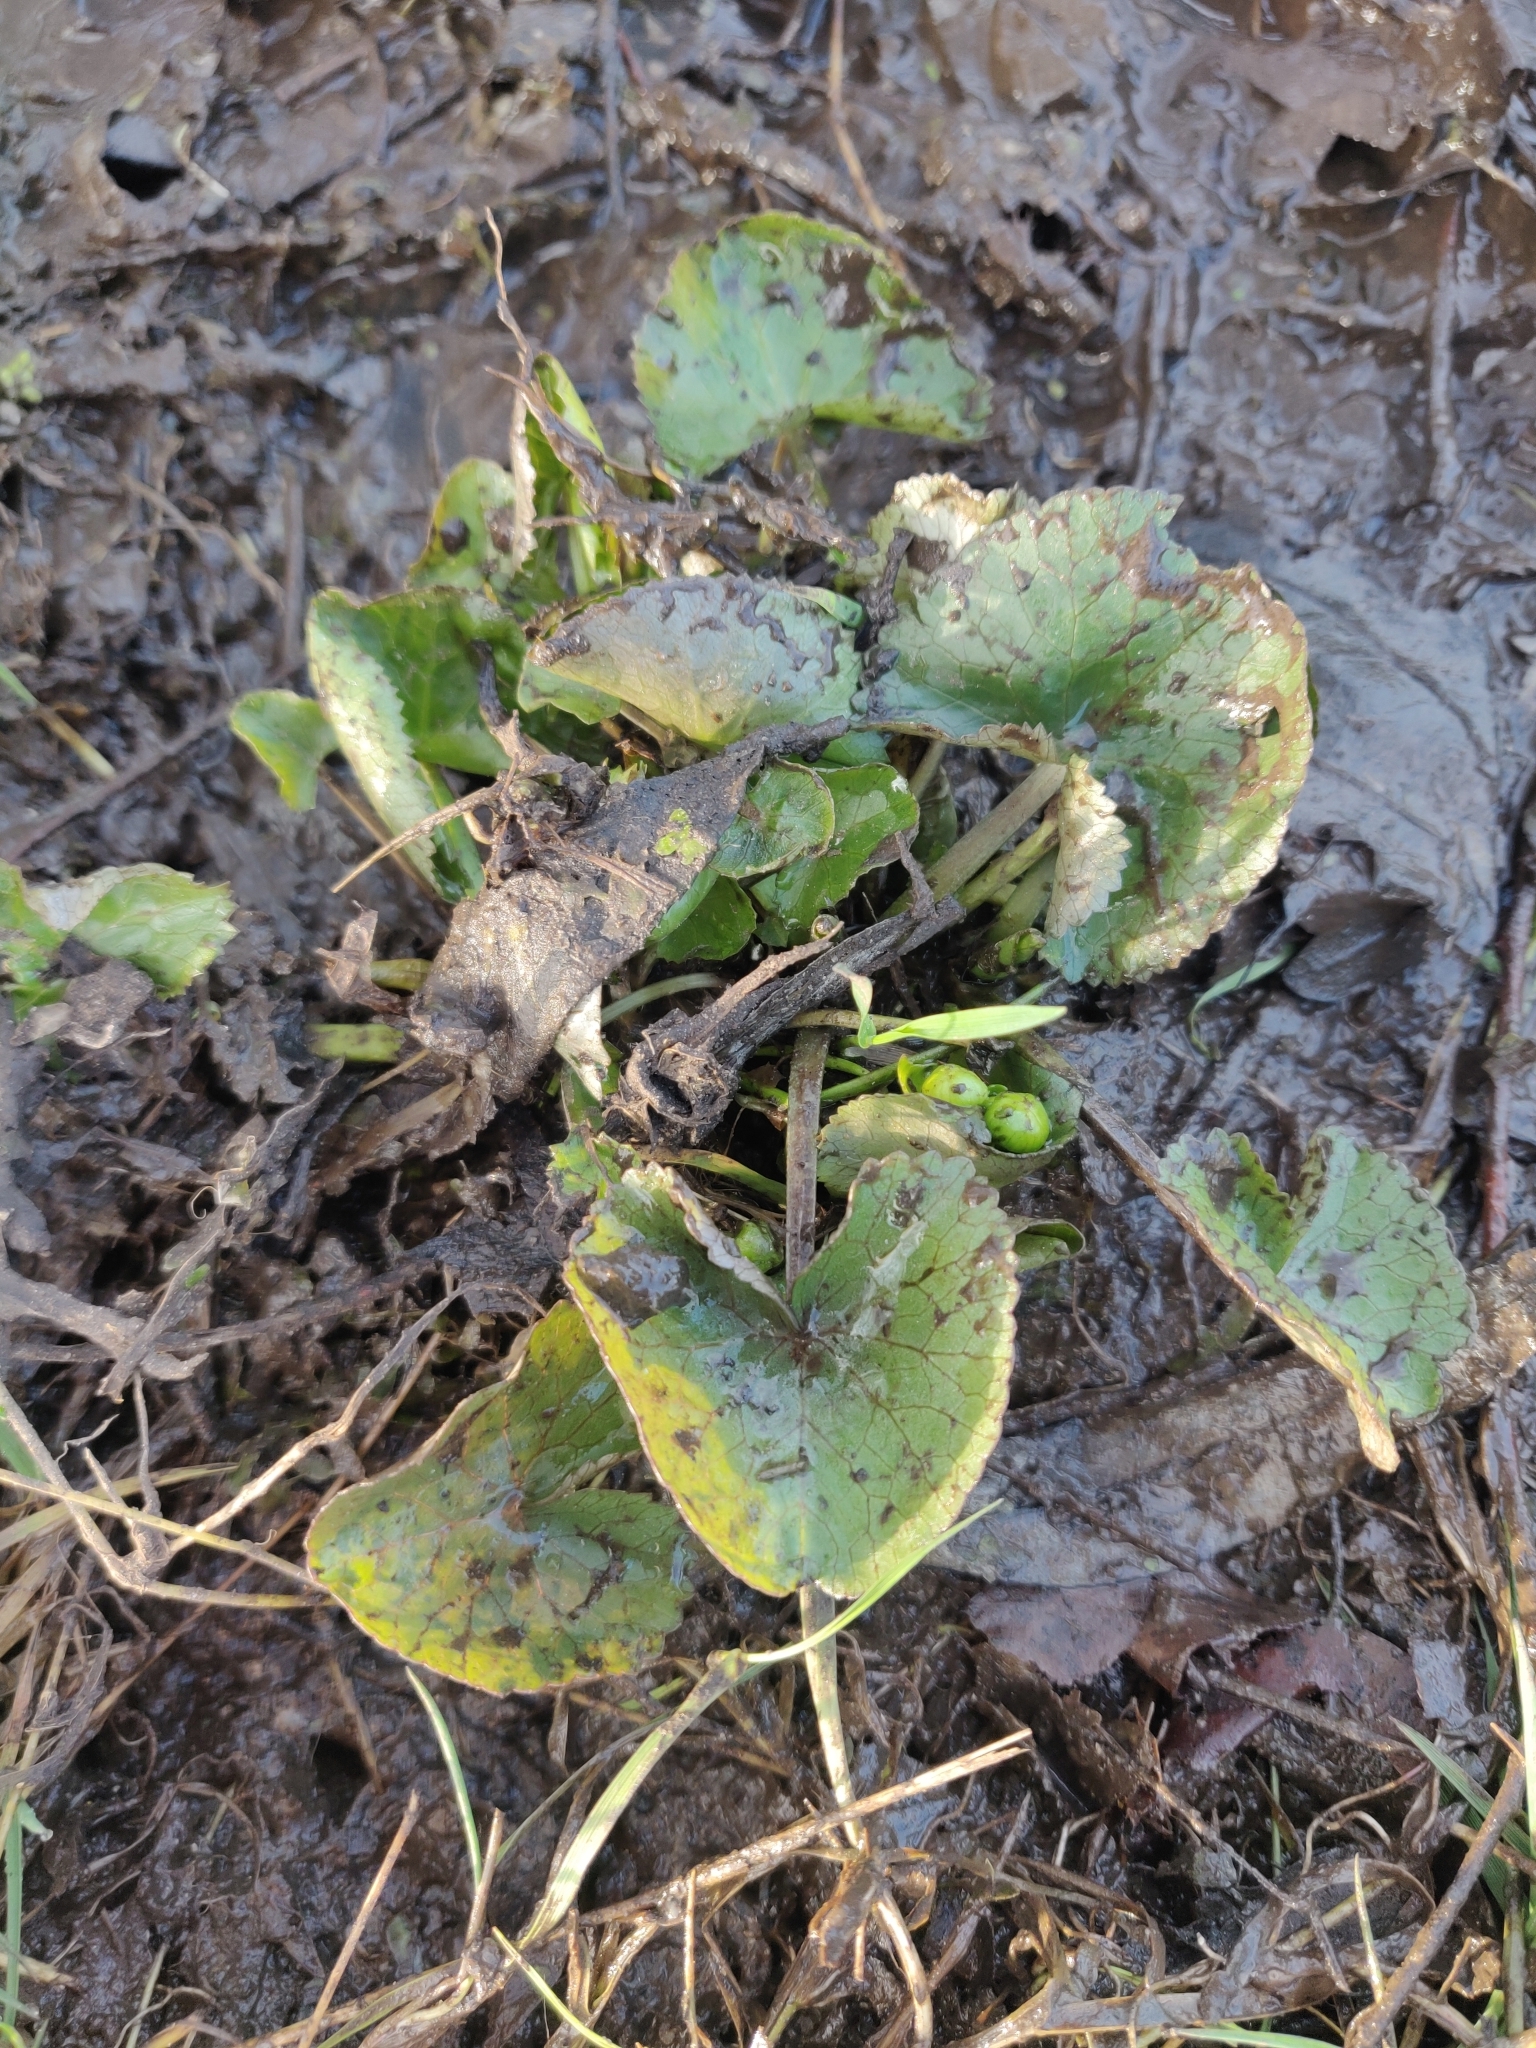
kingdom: Plantae
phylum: Tracheophyta
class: Magnoliopsida
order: Ranunculales
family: Ranunculaceae
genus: Caltha
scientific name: Caltha palustris
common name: Marsh marigold
